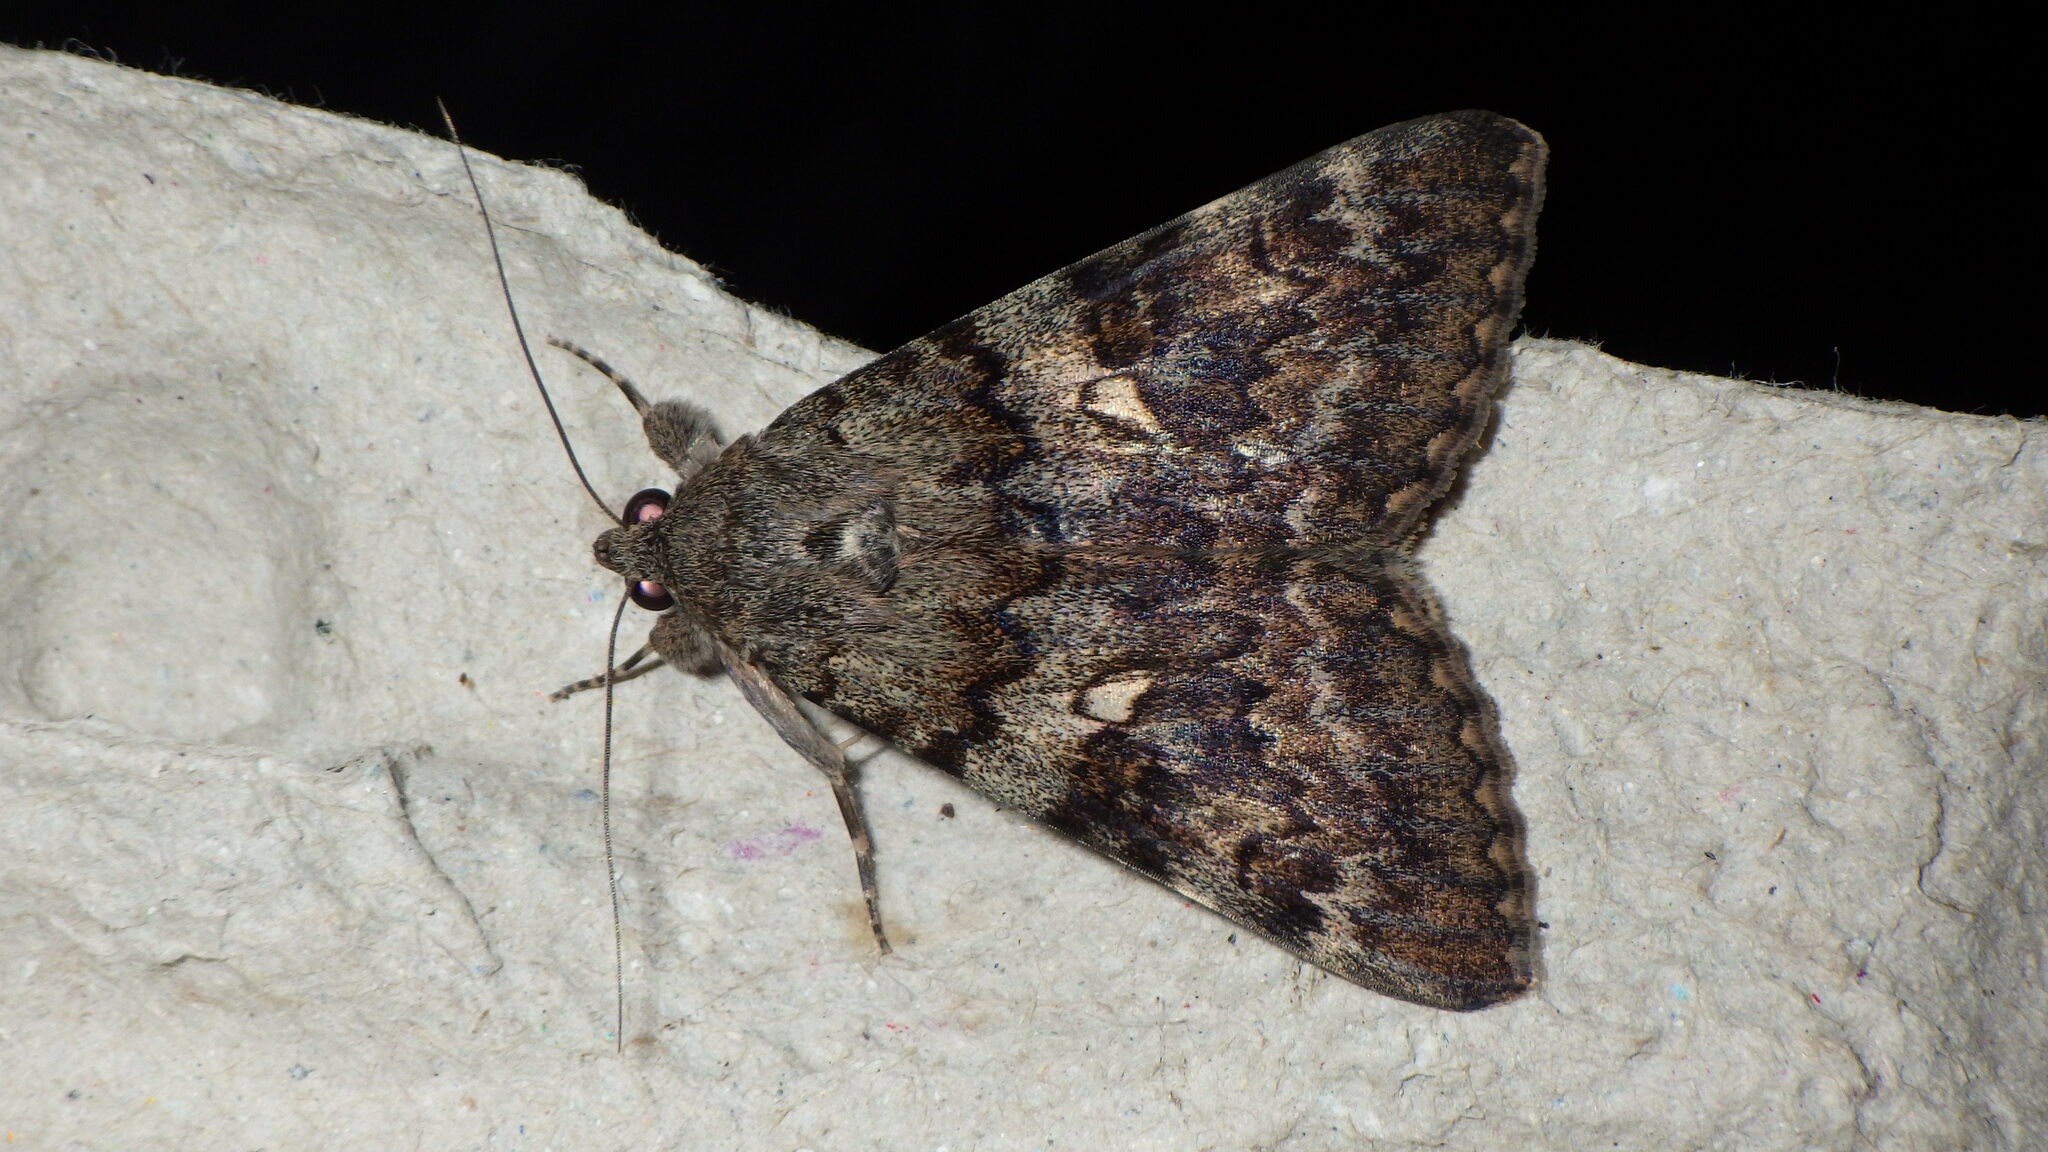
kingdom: Animalia
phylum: Arthropoda
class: Insecta
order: Lepidoptera
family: Erebidae
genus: Catocala
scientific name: Catocala nymphaea
